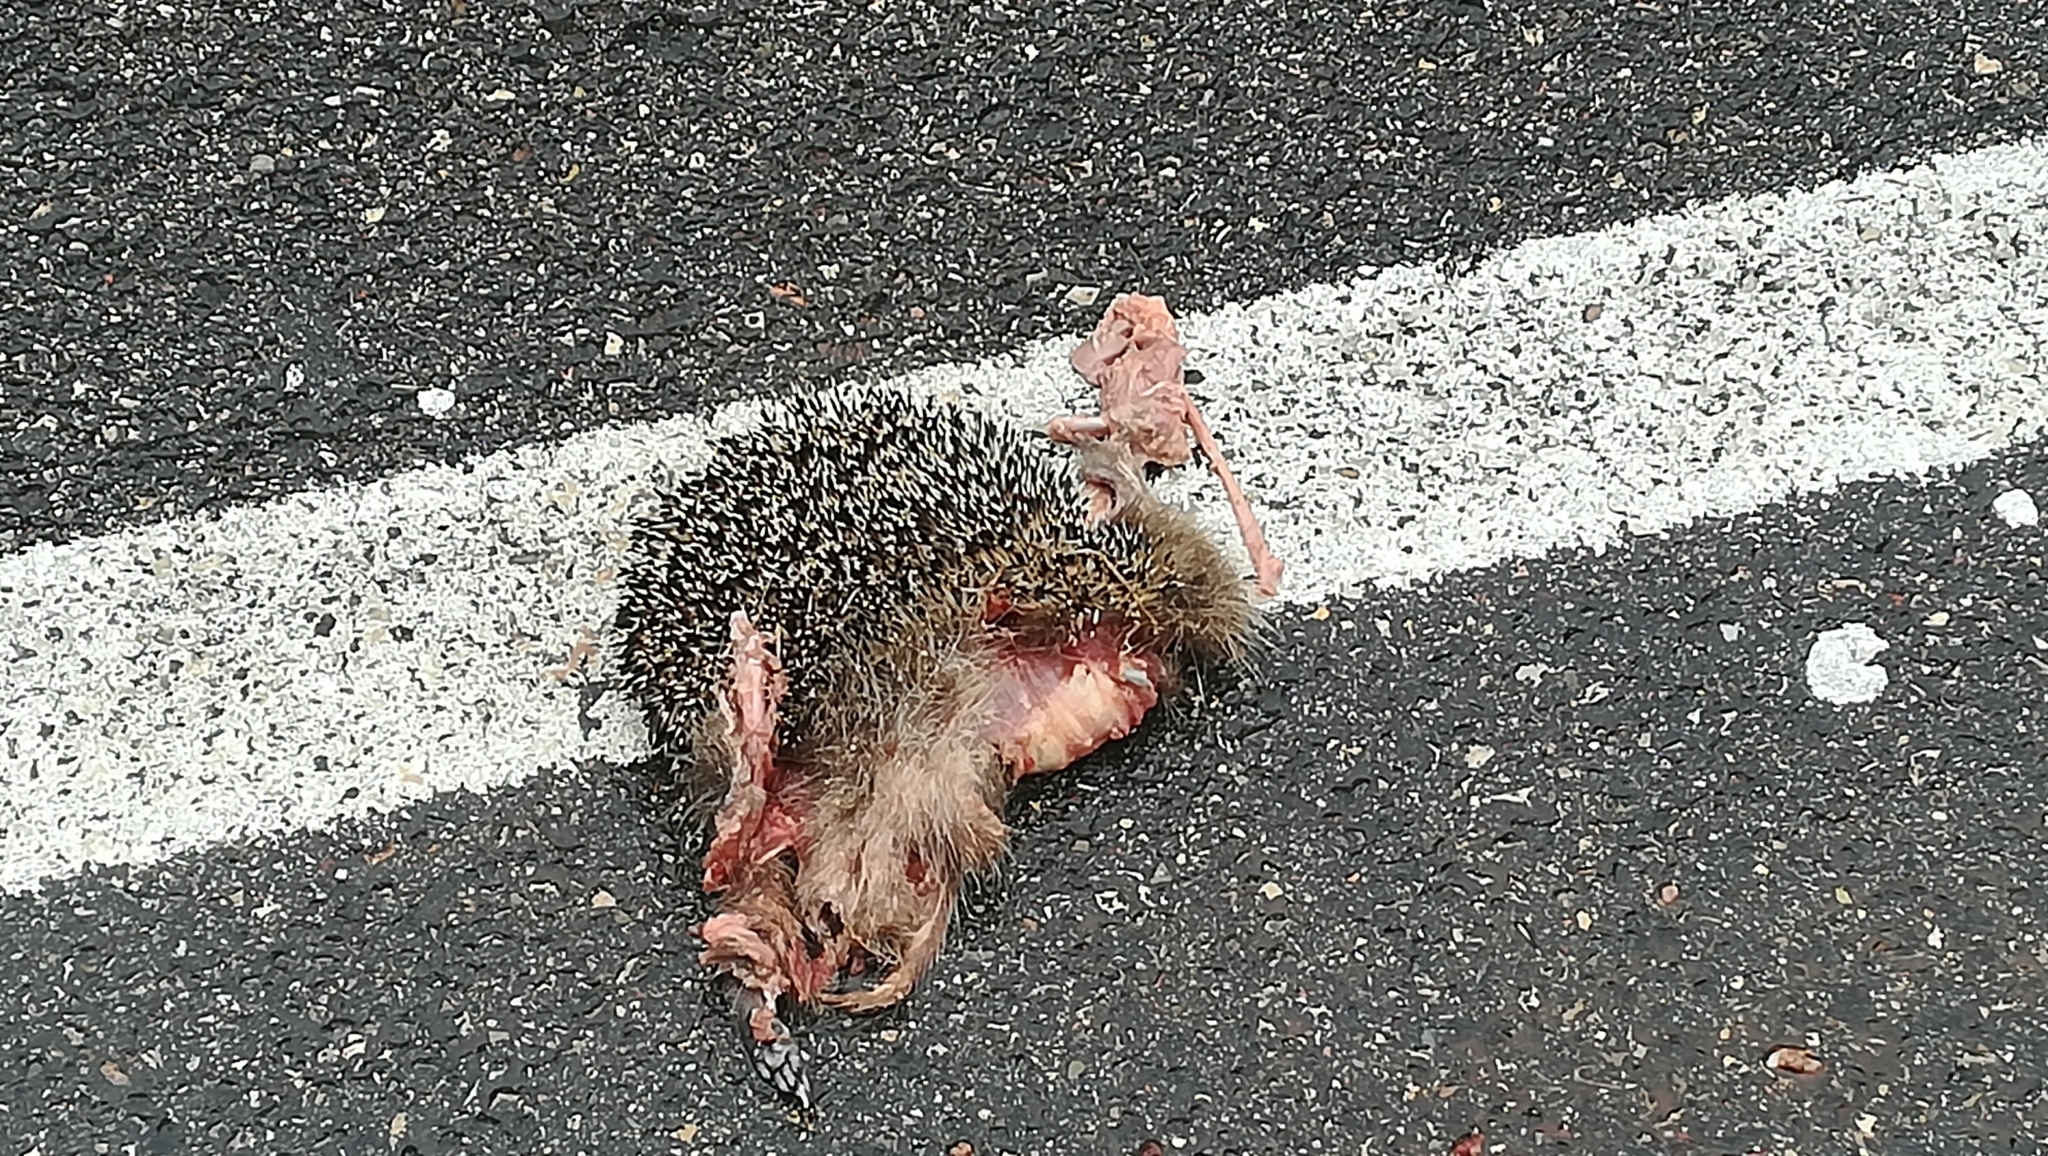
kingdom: Animalia
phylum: Chordata
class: Mammalia
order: Erinaceomorpha
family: Erinaceidae
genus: Erinaceus
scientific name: Erinaceus europaeus
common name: West european hedgehog
